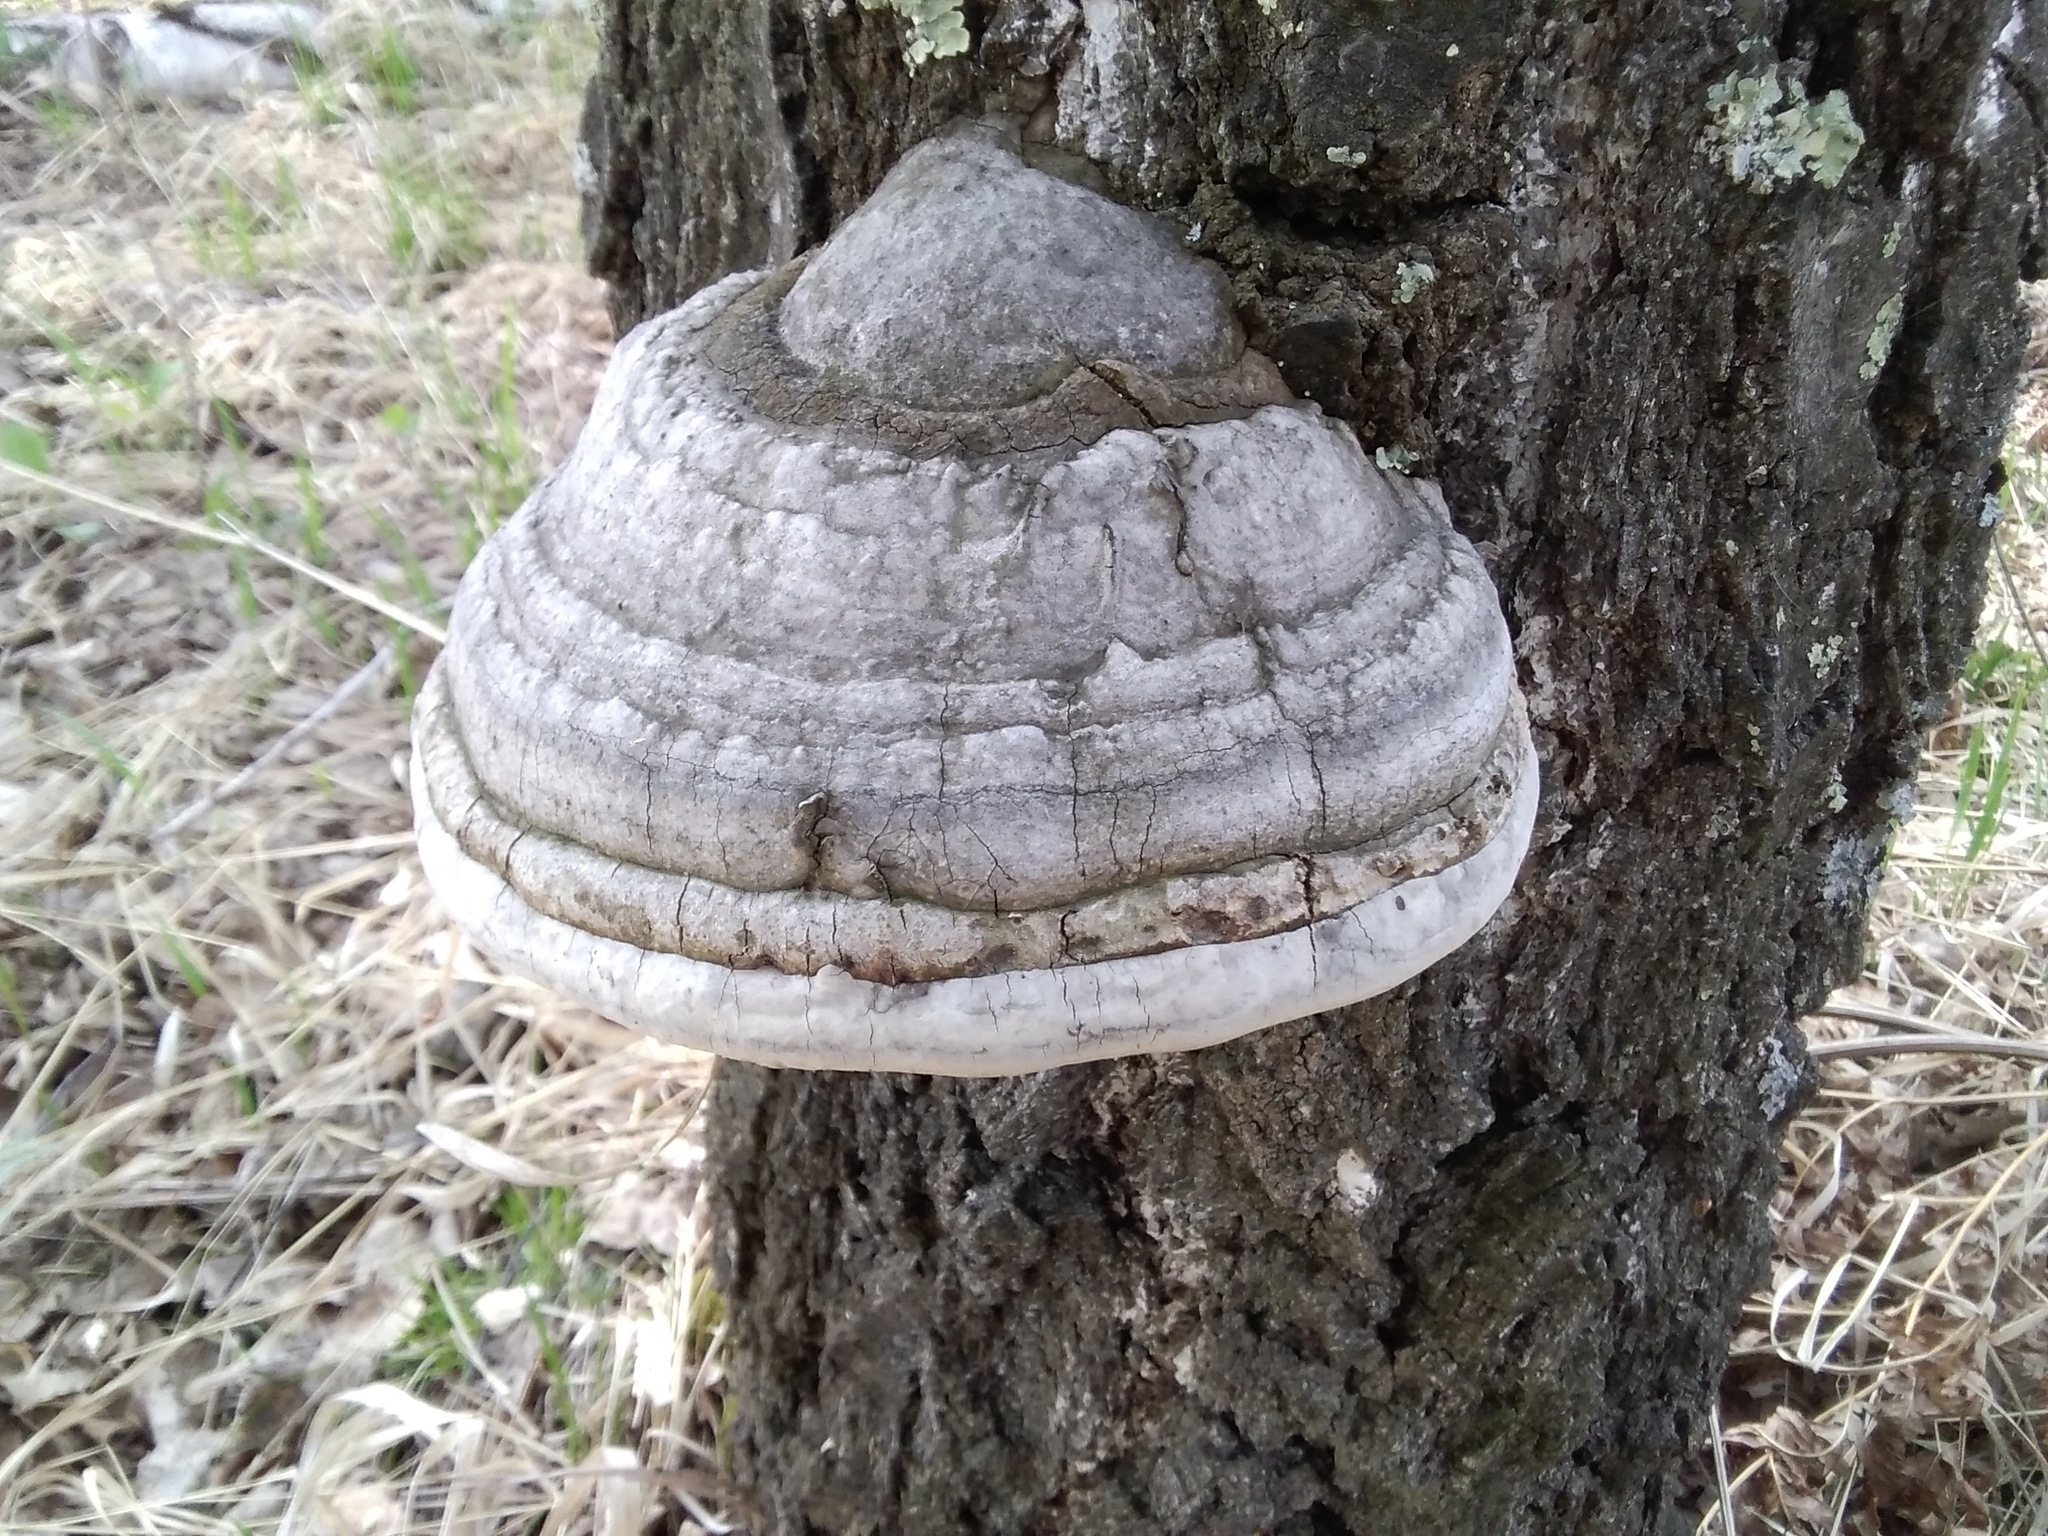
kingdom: Fungi
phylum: Basidiomycota
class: Agaricomycetes
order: Polyporales
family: Polyporaceae
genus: Fomes
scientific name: Fomes fomentarius
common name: Hoof fungus
